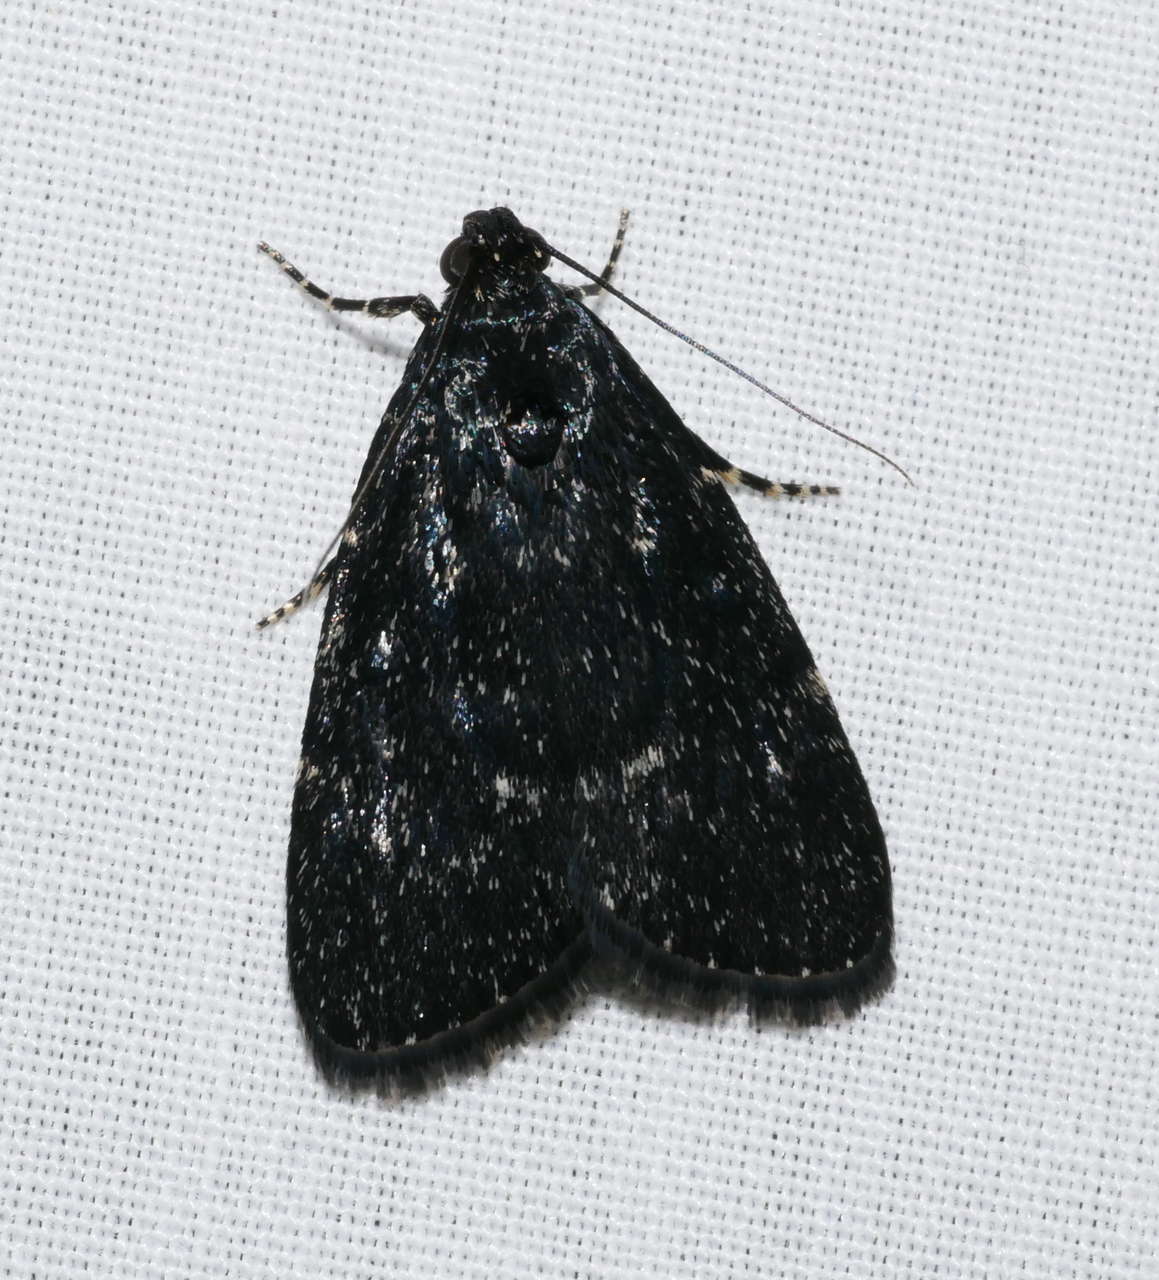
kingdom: Animalia
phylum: Arthropoda
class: Insecta
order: Lepidoptera
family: Pyralidae
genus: Stericta
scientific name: Stericta carbonalis
